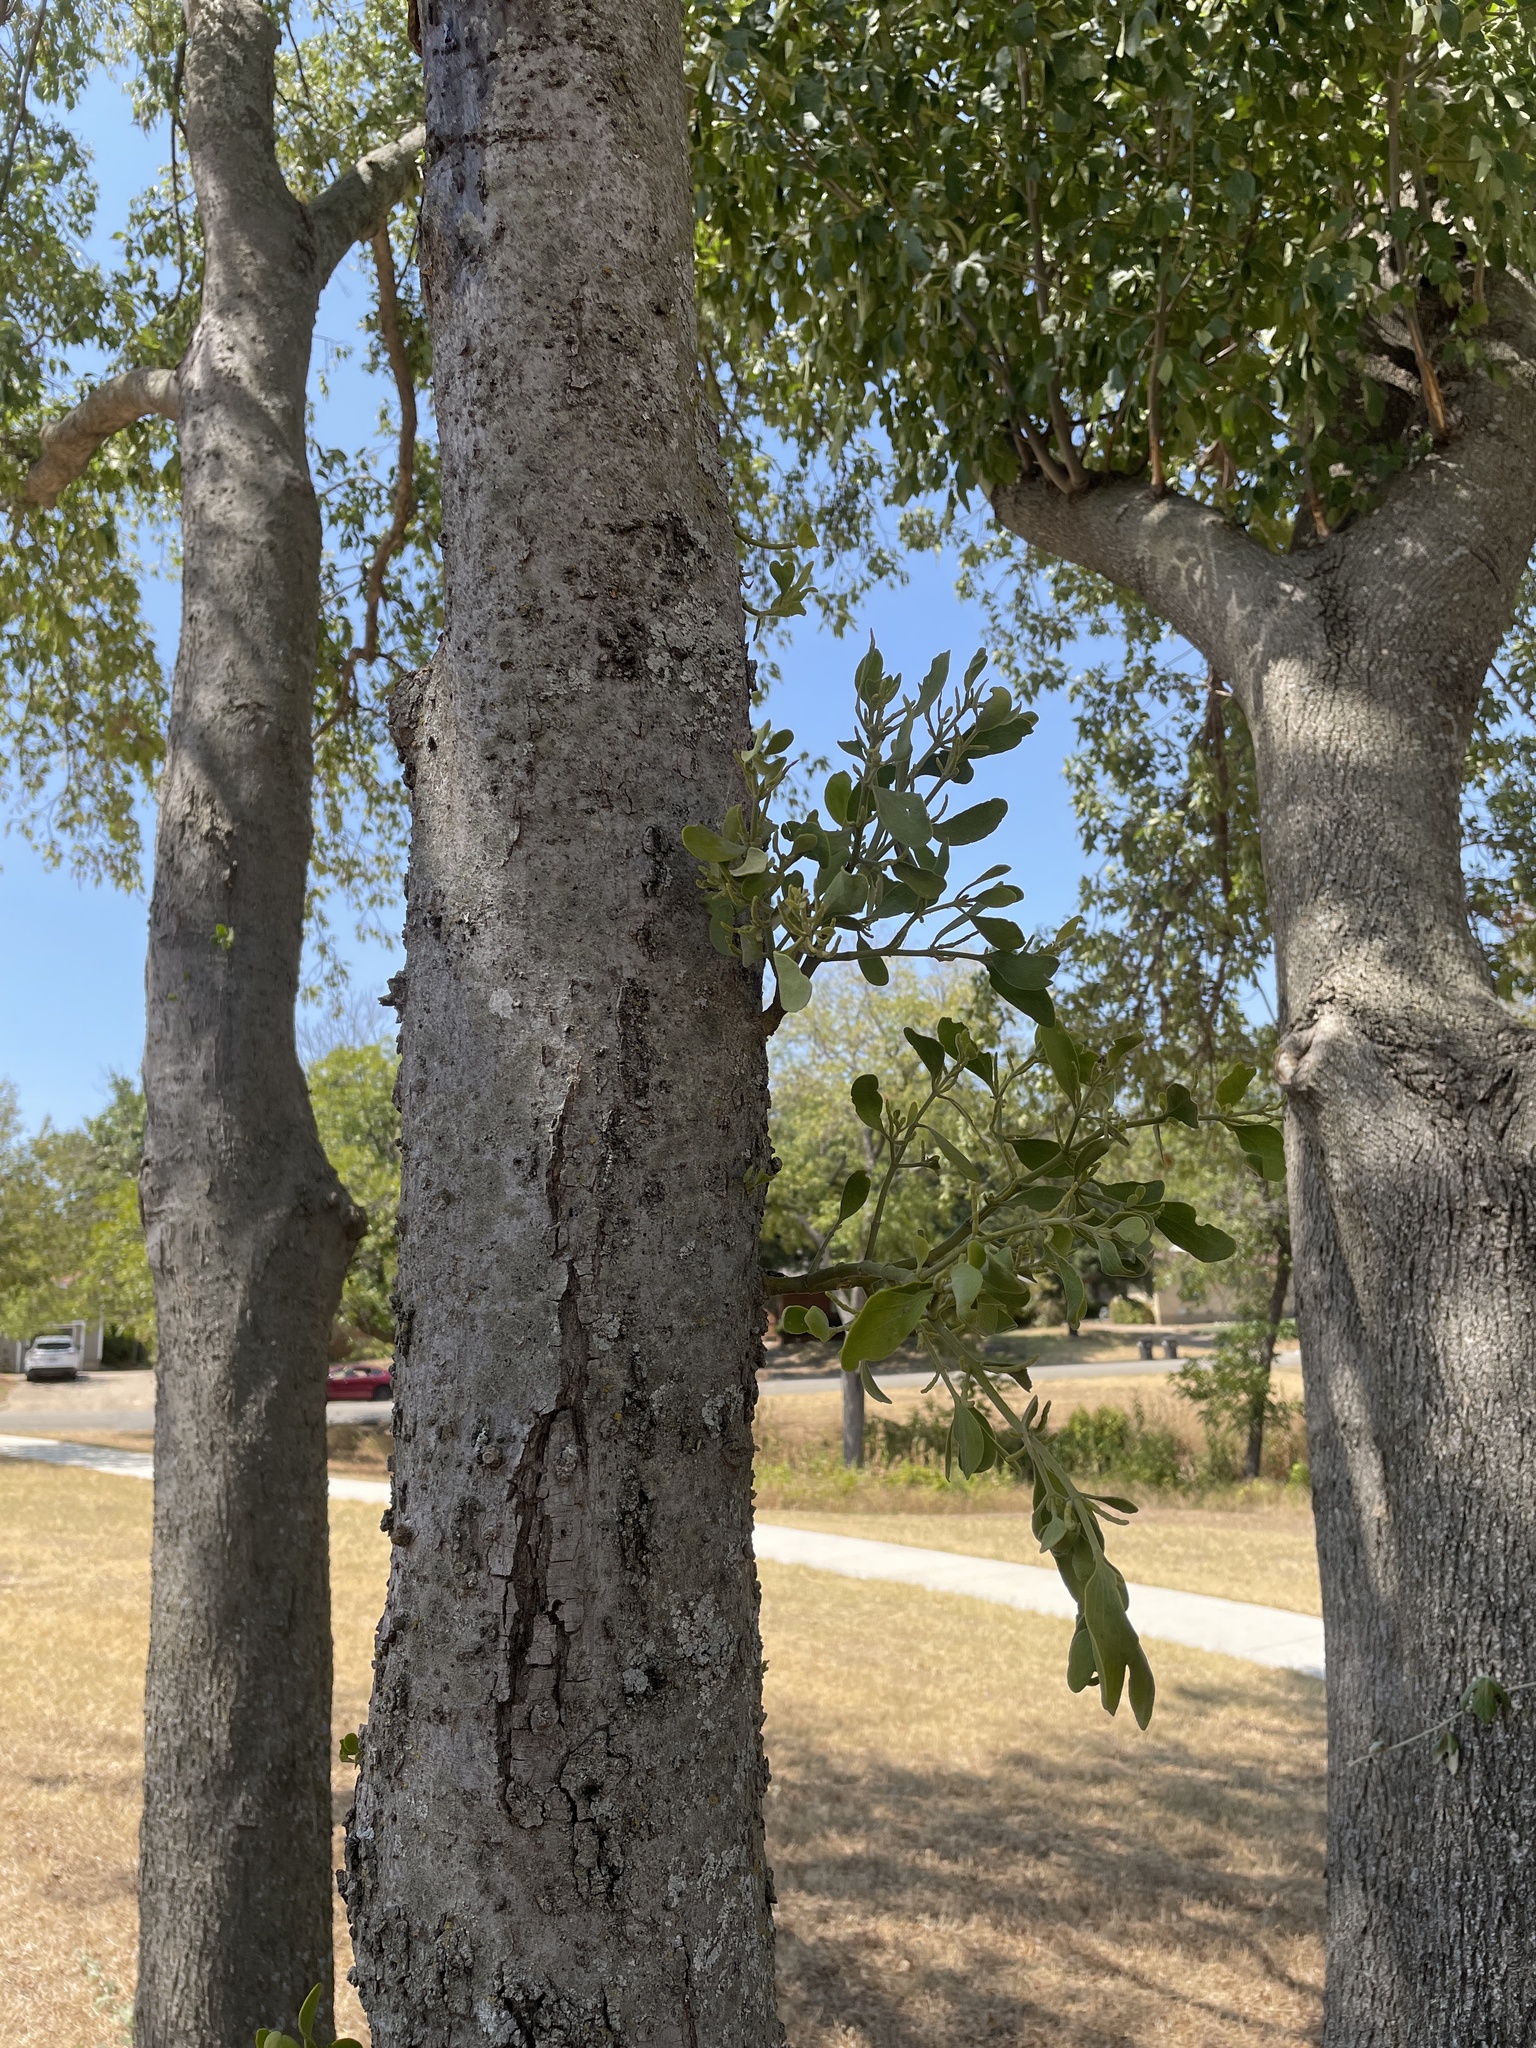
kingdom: Plantae
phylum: Tracheophyta
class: Magnoliopsida
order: Santalales
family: Viscaceae
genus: Phoradendron
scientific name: Phoradendron leucarpum
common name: Pacific mistletoe
